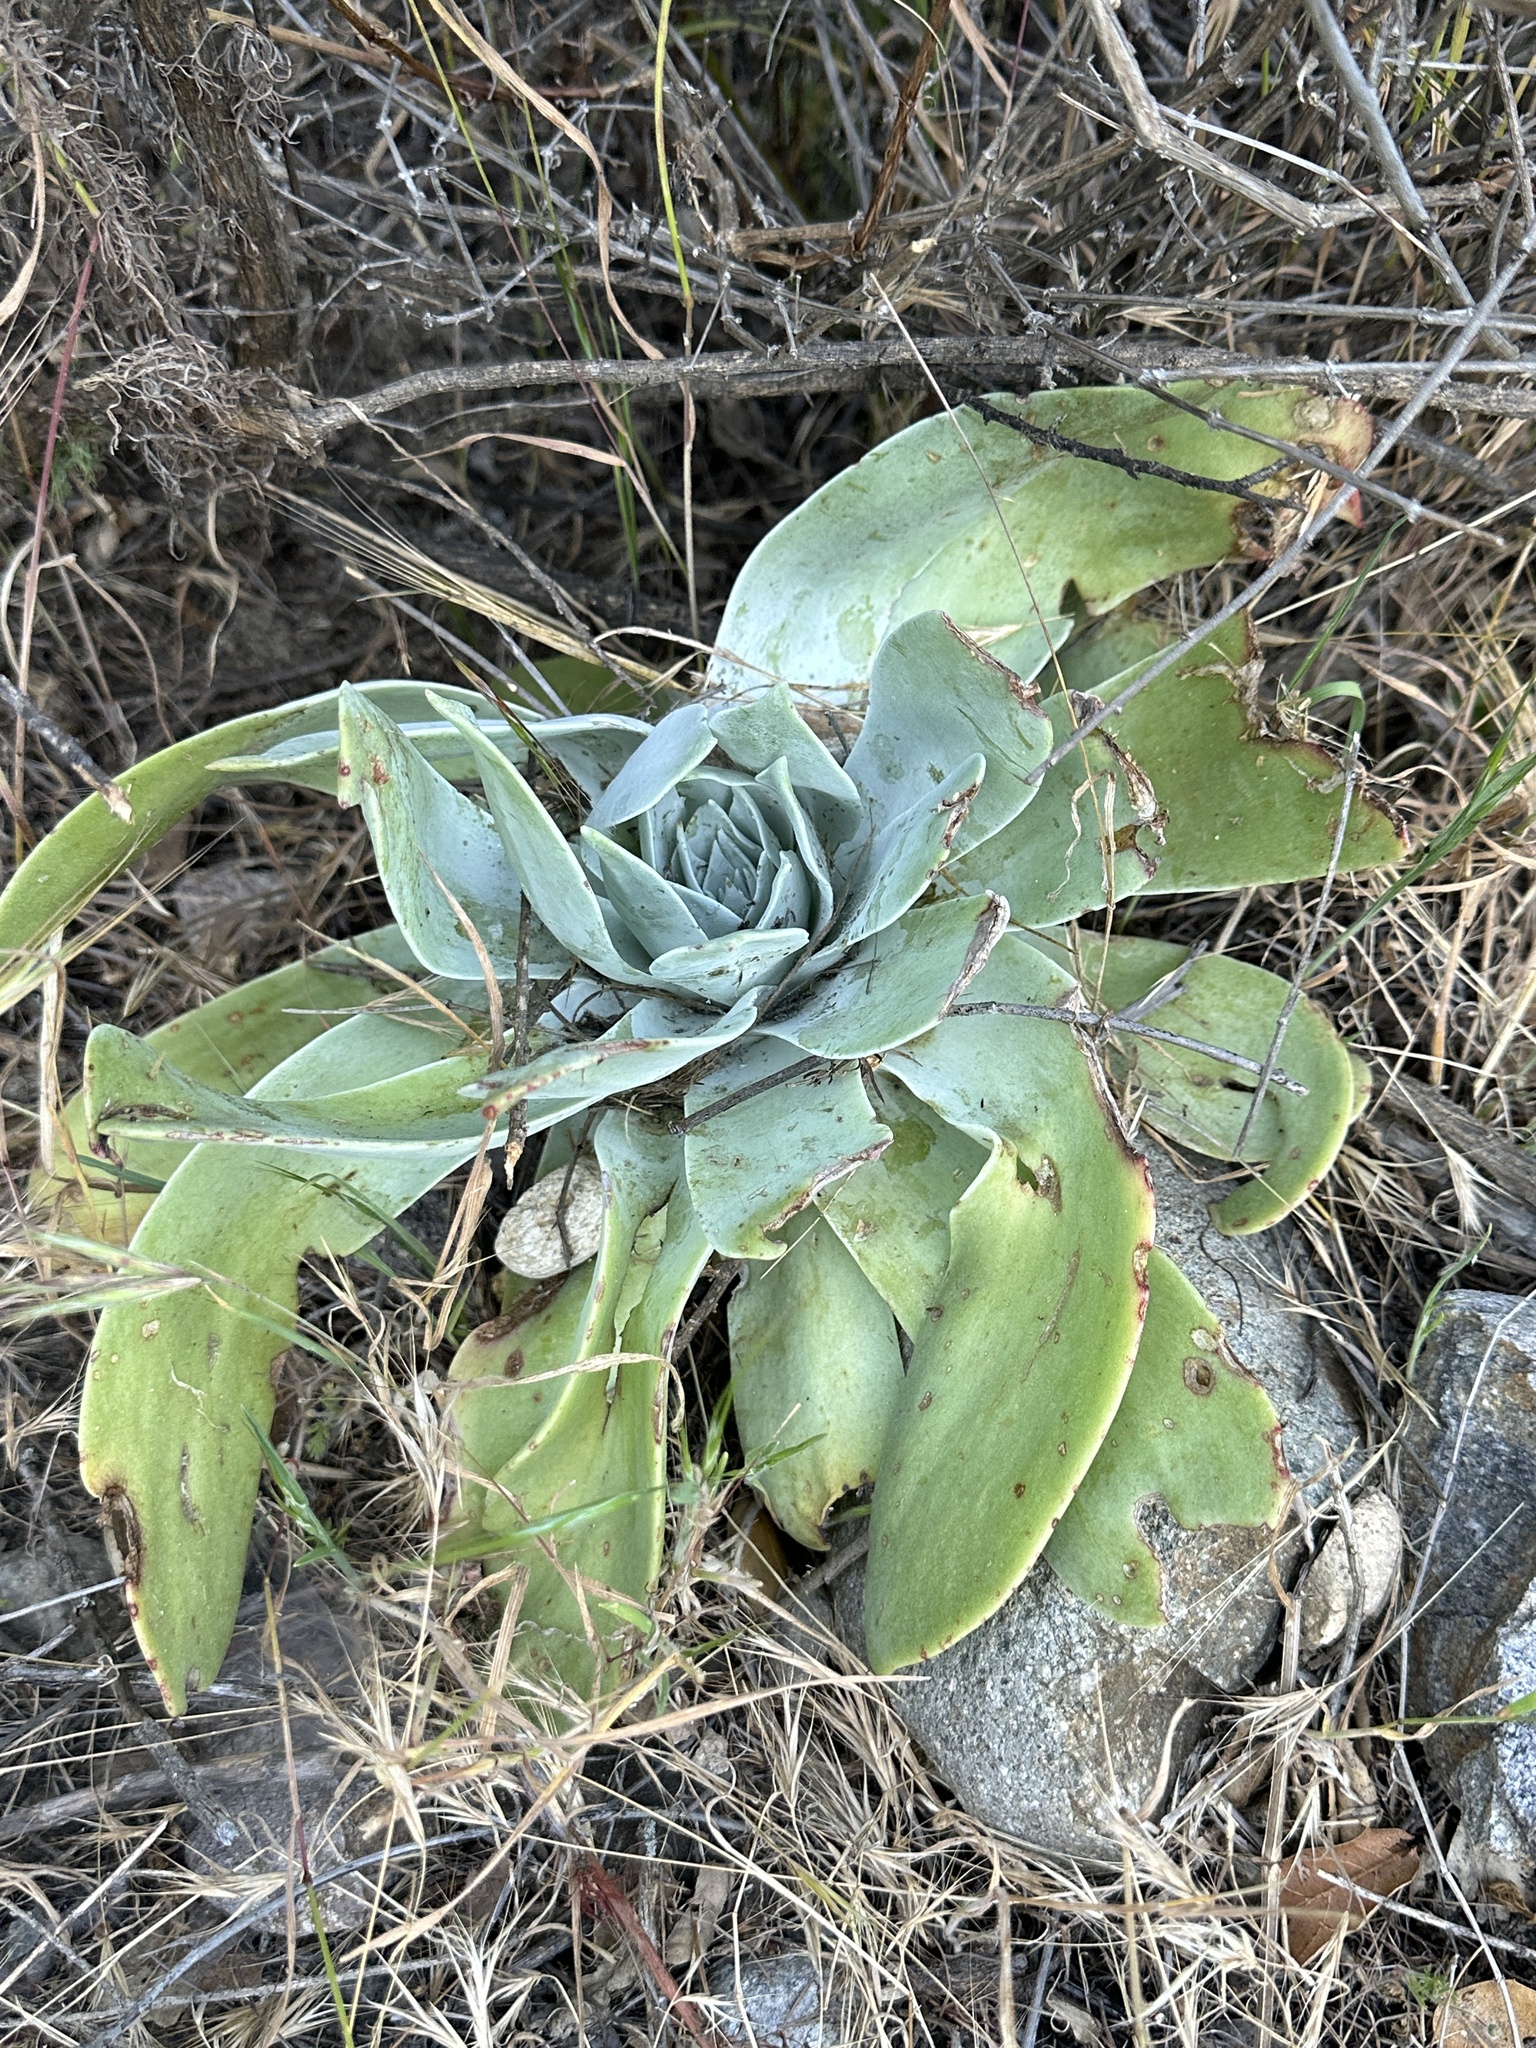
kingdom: Plantae
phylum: Tracheophyta
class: Magnoliopsida
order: Saxifragales
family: Crassulaceae
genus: Dudleya
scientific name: Dudleya pulverulenta
